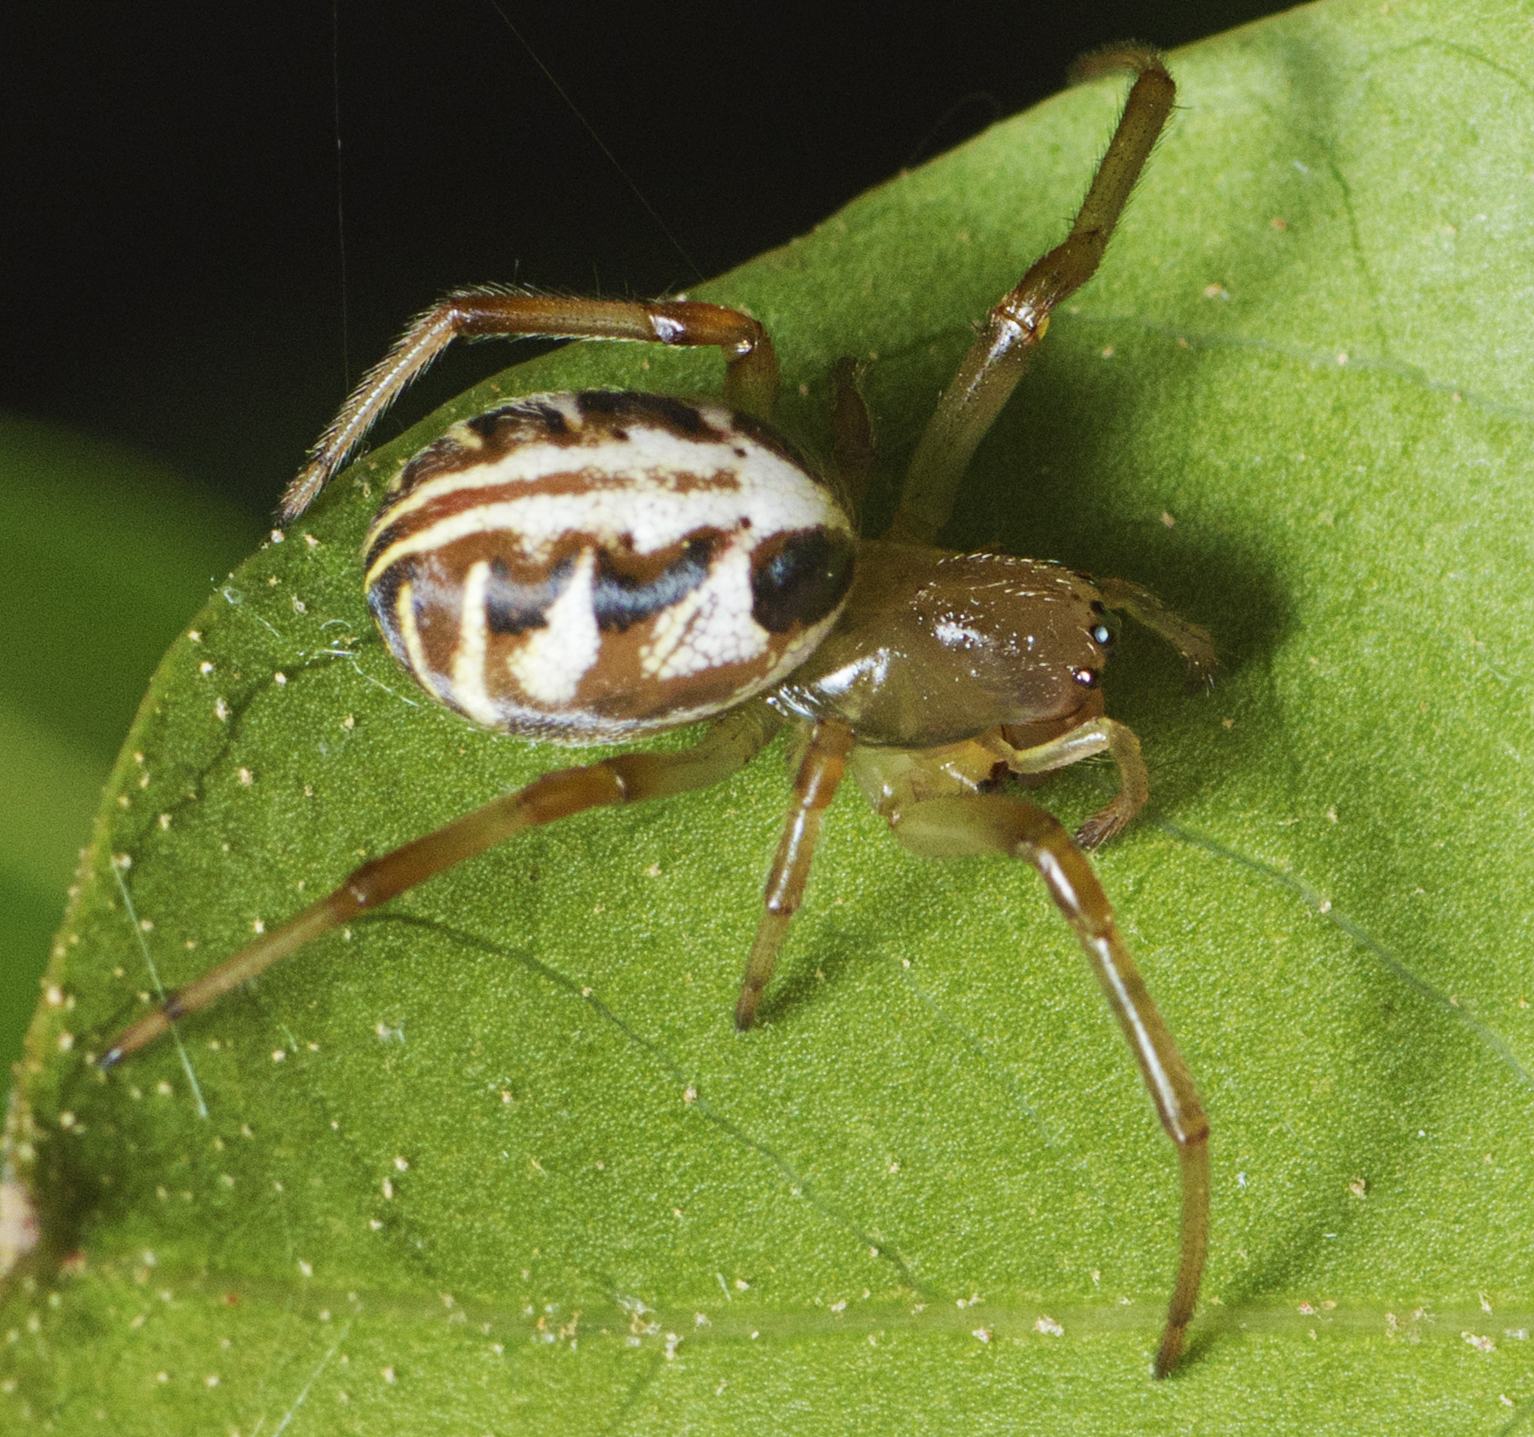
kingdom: Animalia
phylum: Arthropoda
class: Arachnida
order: Araneae
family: Araneidae
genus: Phonognatha
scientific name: Phonognatha graeffei
